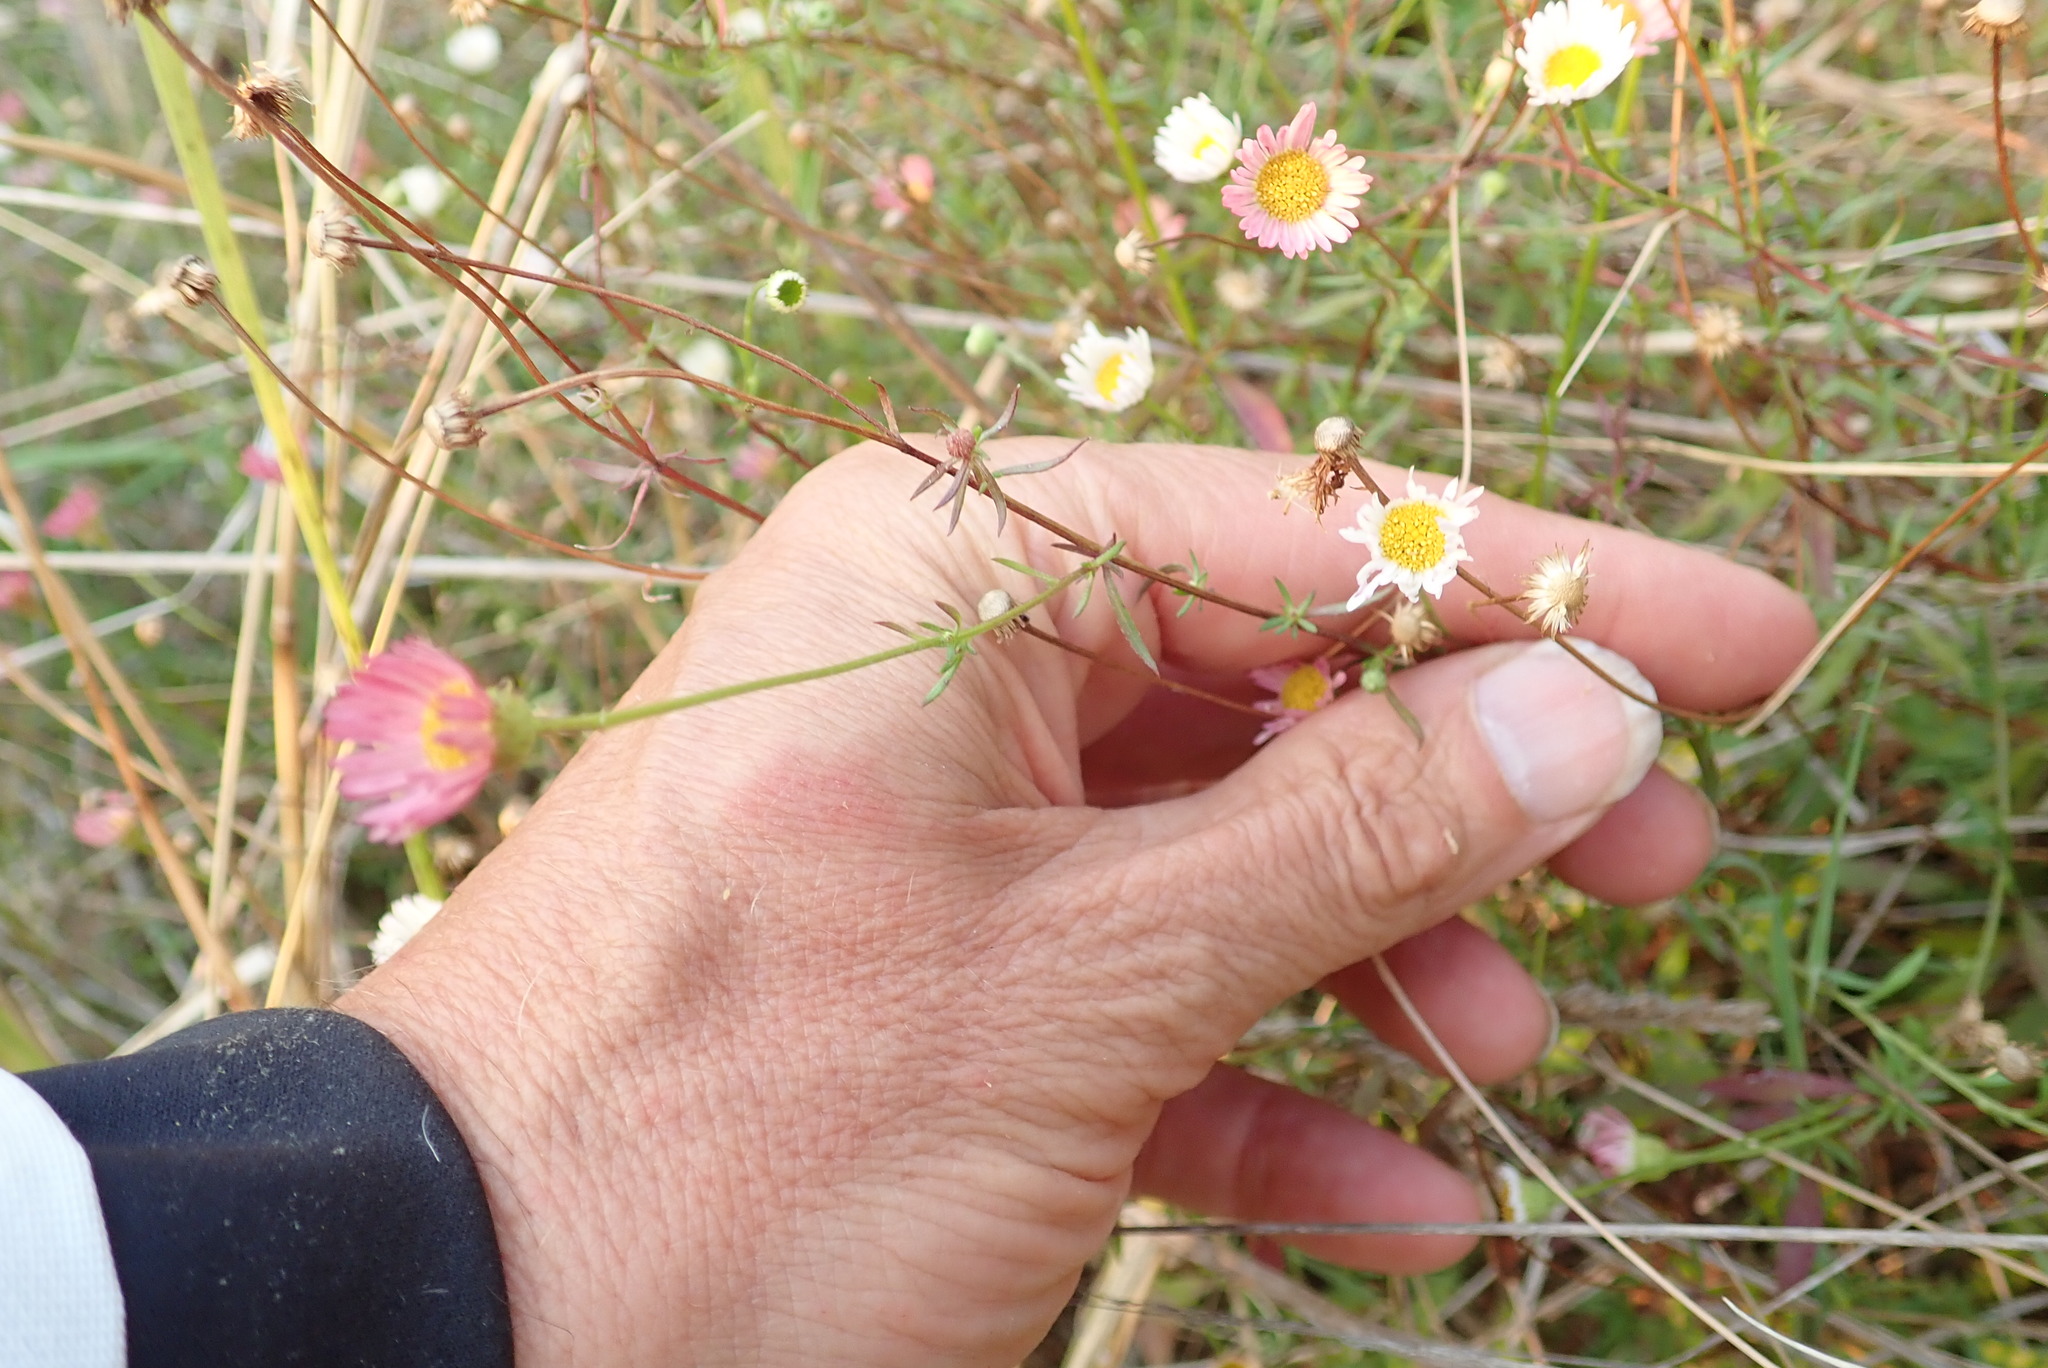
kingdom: Plantae
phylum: Tracheophyta
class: Magnoliopsida
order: Asterales
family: Asteraceae
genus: Erigeron
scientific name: Erigeron karvinskianus
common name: Mexican fleabane
